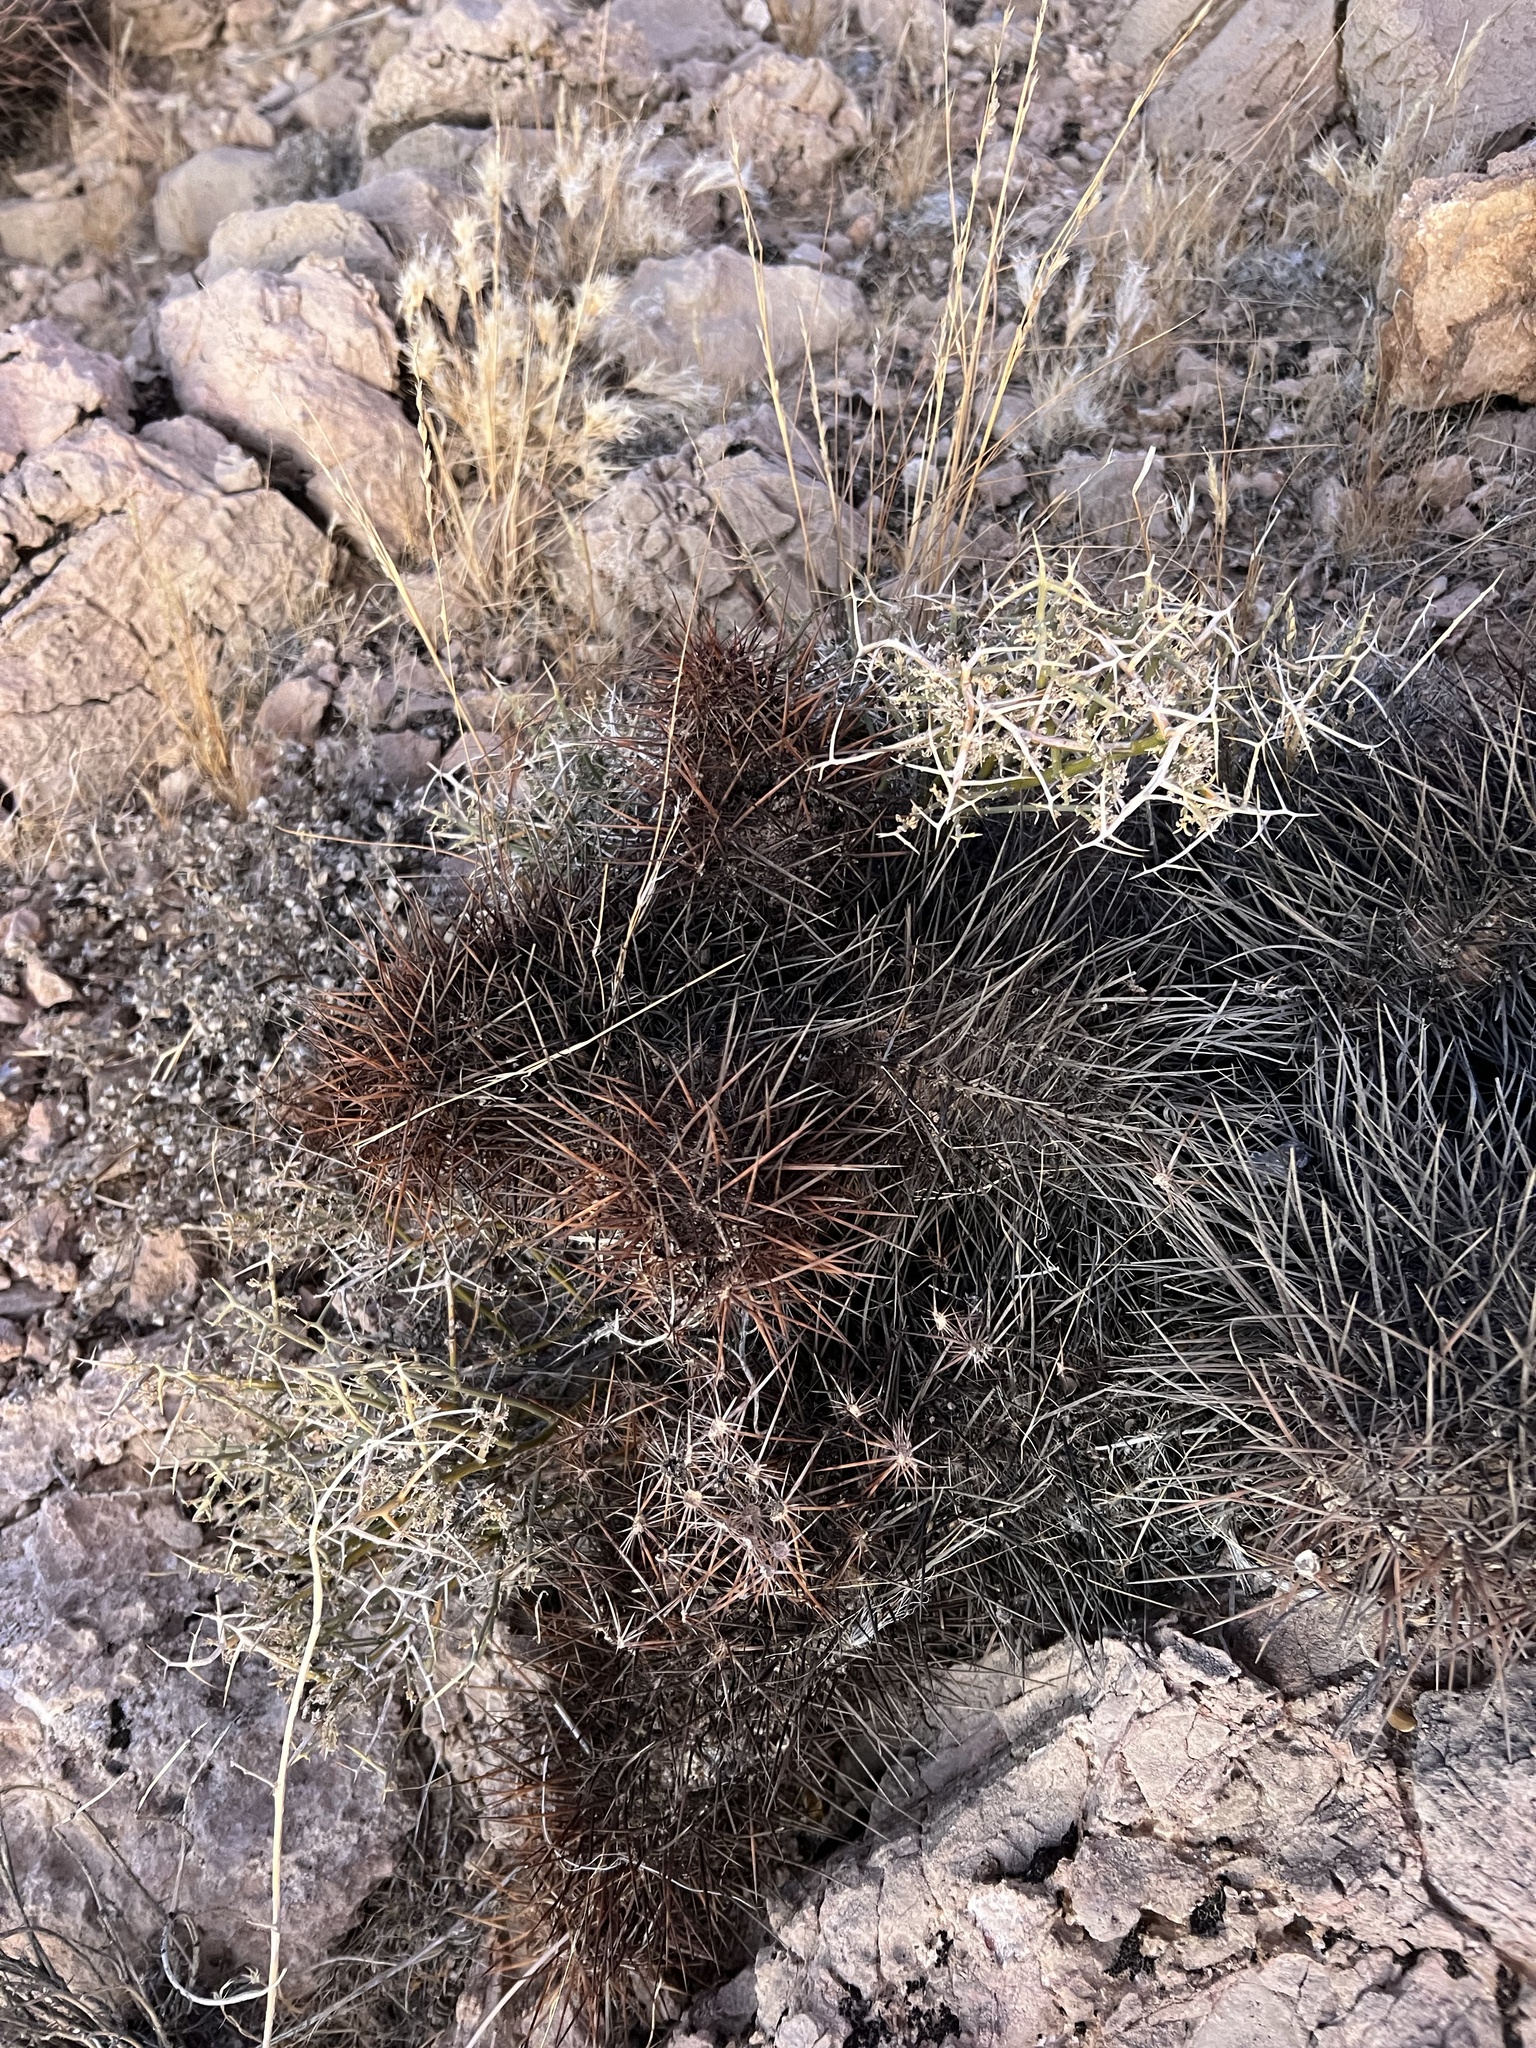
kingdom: Plantae
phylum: Tracheophyta
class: Magnoliopsida
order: Caryophyllales
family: Cactaceae
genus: Echinocereus
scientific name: Echinocereus engelmannii
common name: Engelmann's hedgehog cactus
